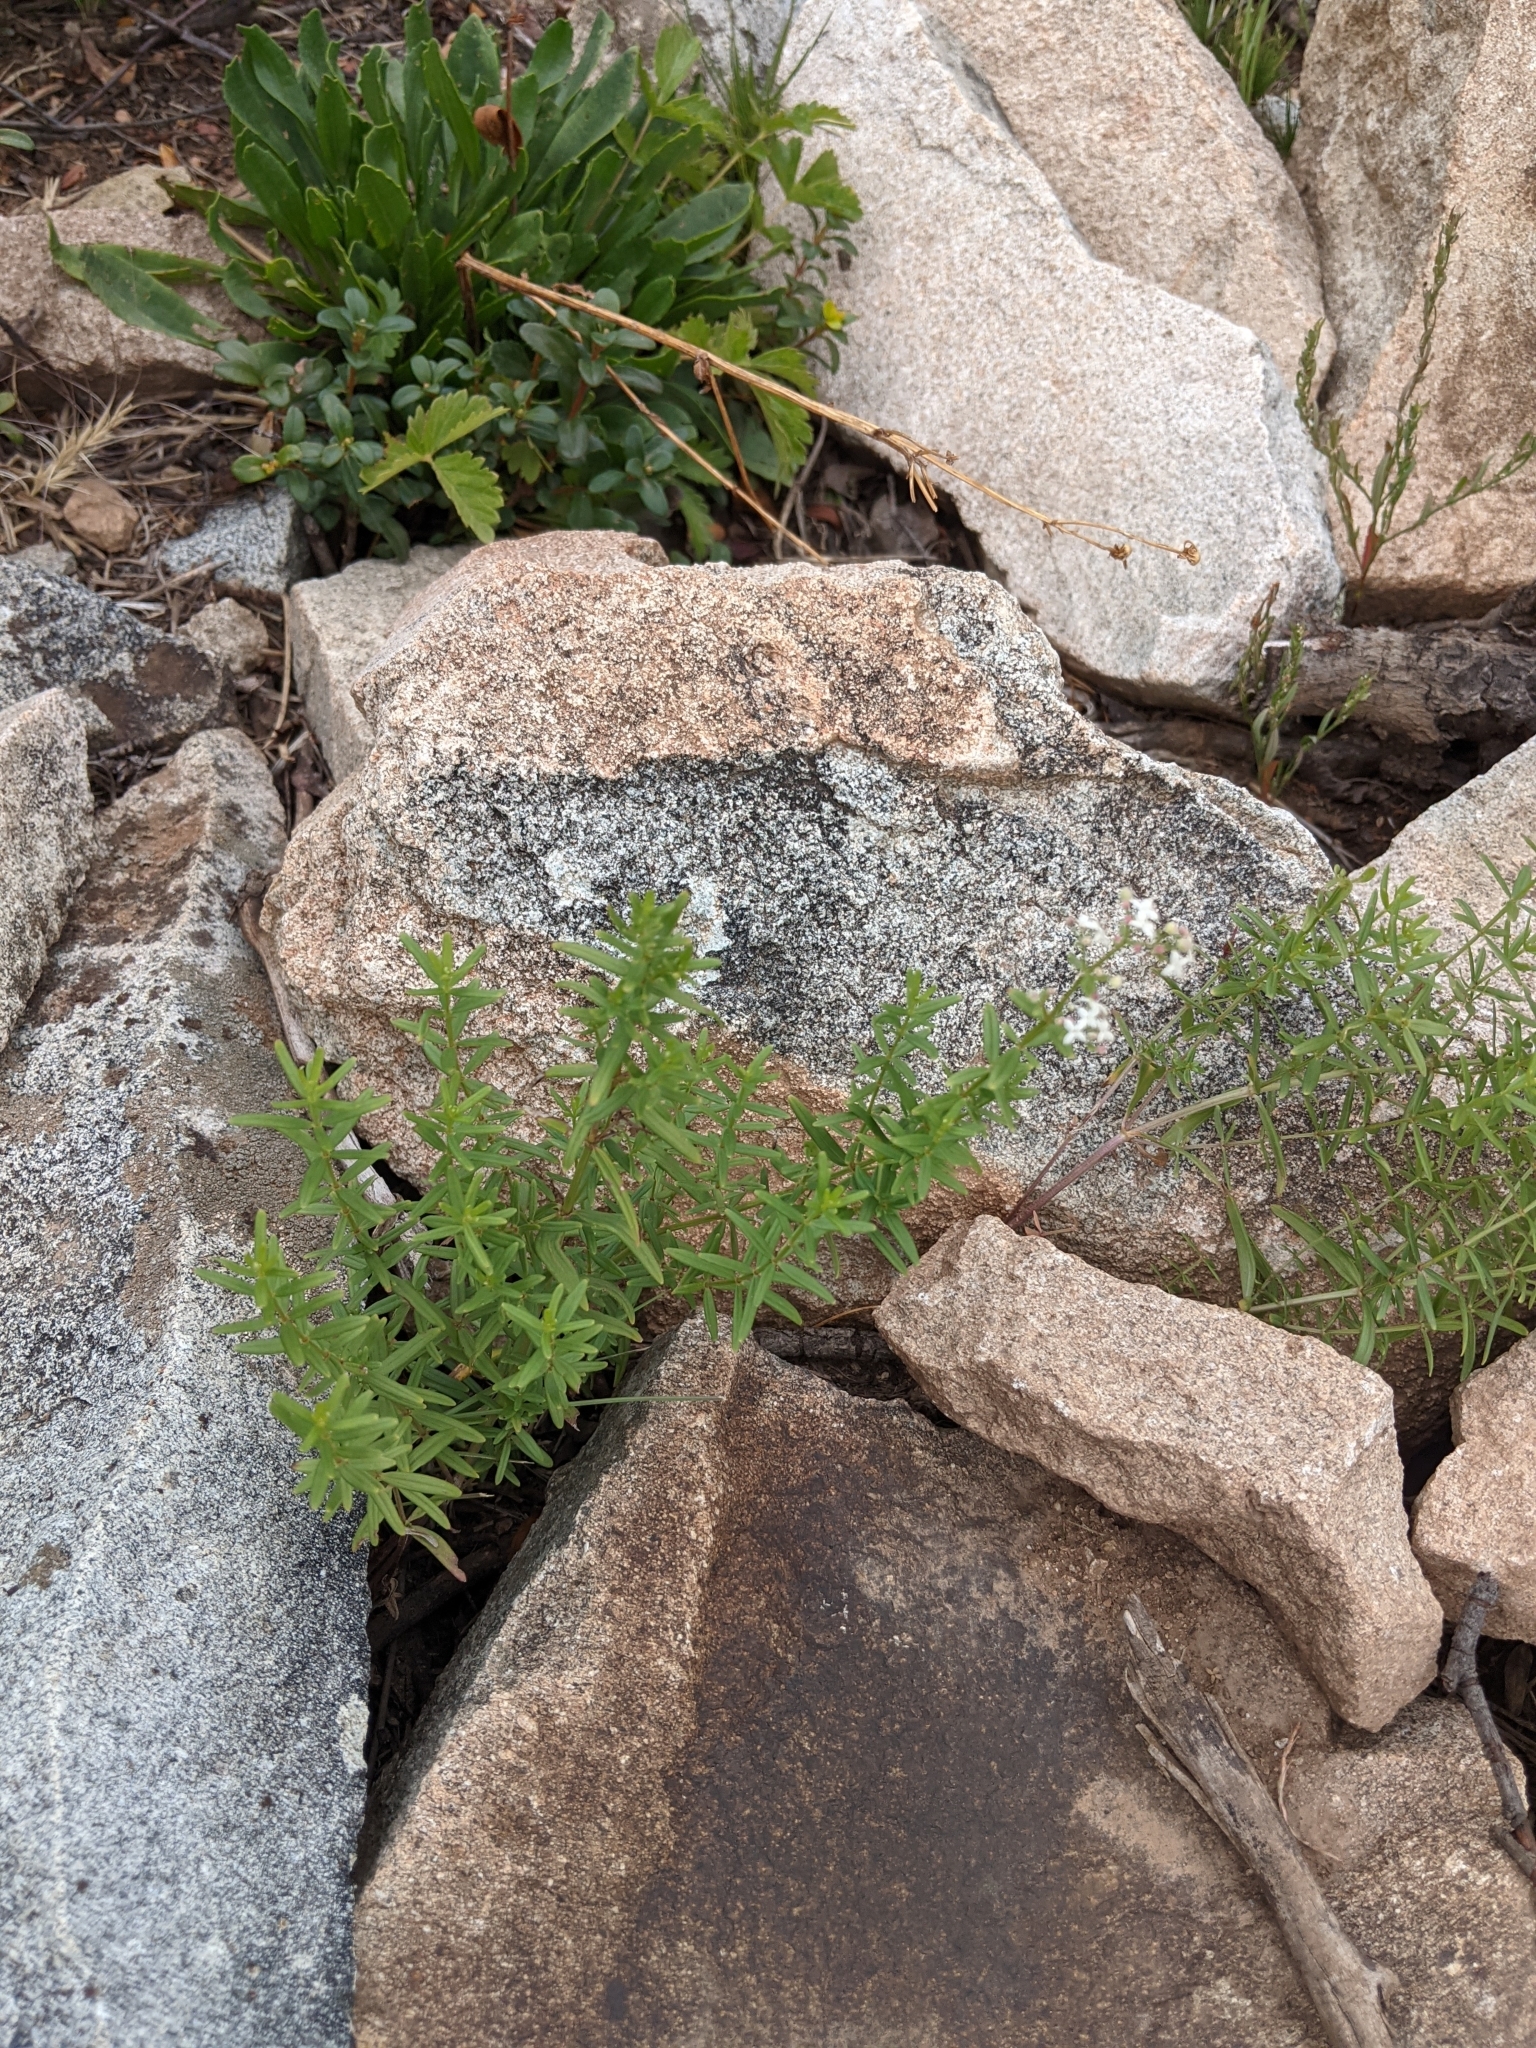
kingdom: Plantae
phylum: Tracheophyta
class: Magnoliopsida
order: Gentianales
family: Rubiaceae
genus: Galium
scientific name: Galium boreale
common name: Northern bedstraw
